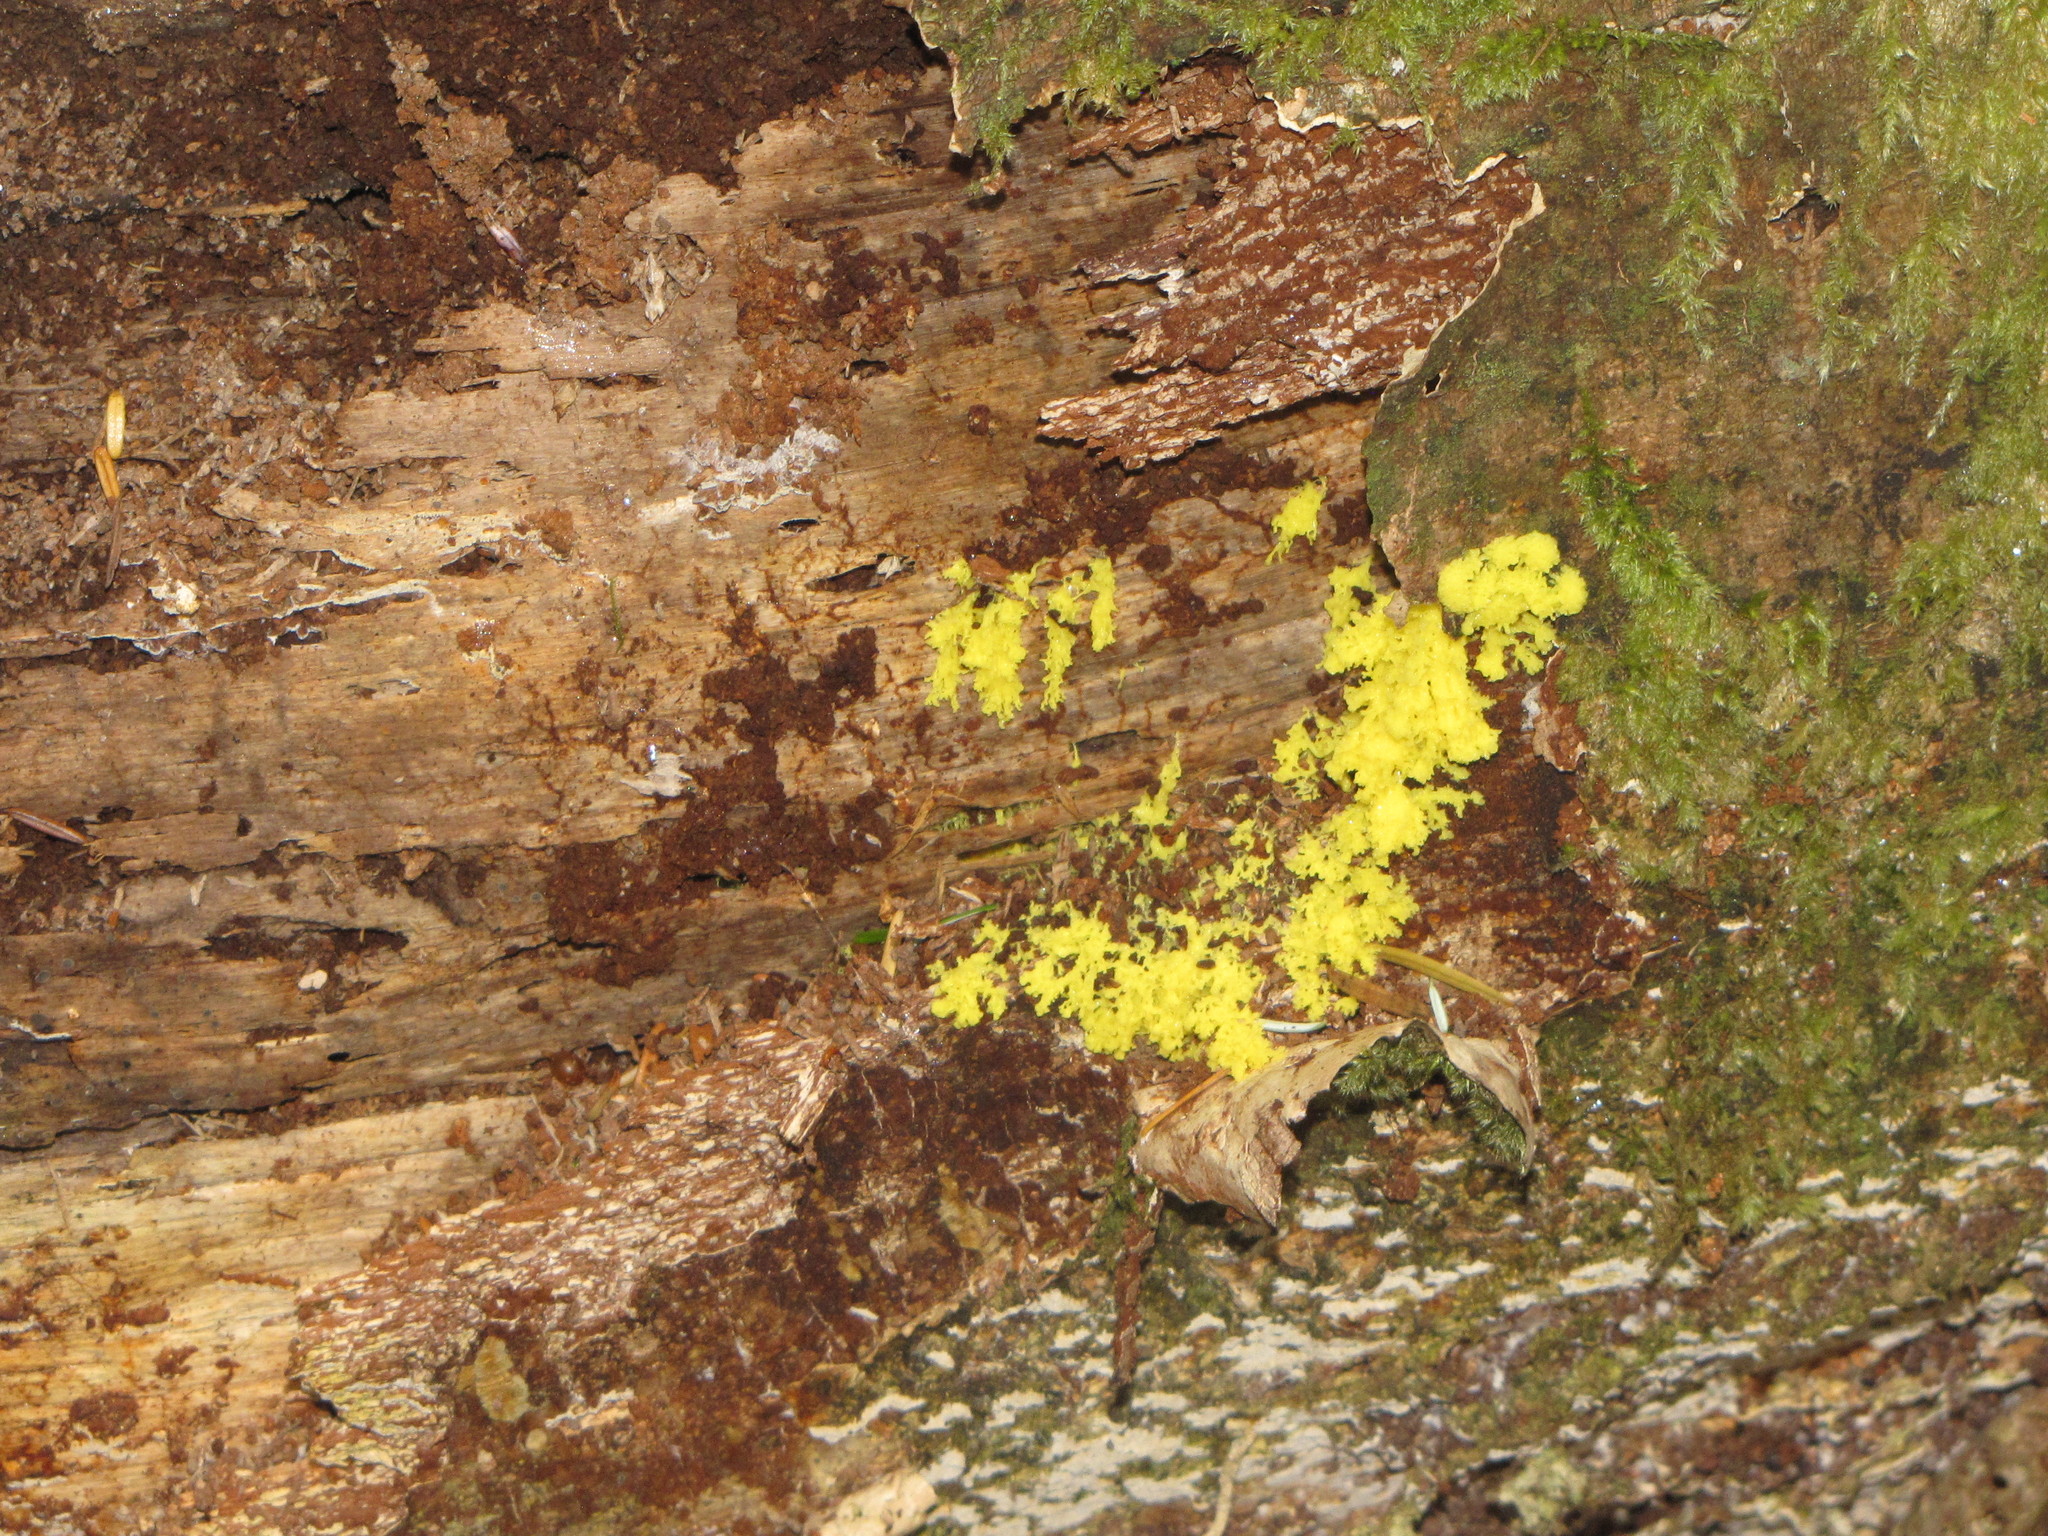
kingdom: Protozoa
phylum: Mycetozoa
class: Myxomycetes
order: Physarales
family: Physaraceae
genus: Fuligo
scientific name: Fuligo septica
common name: Dog vomit slime mold
